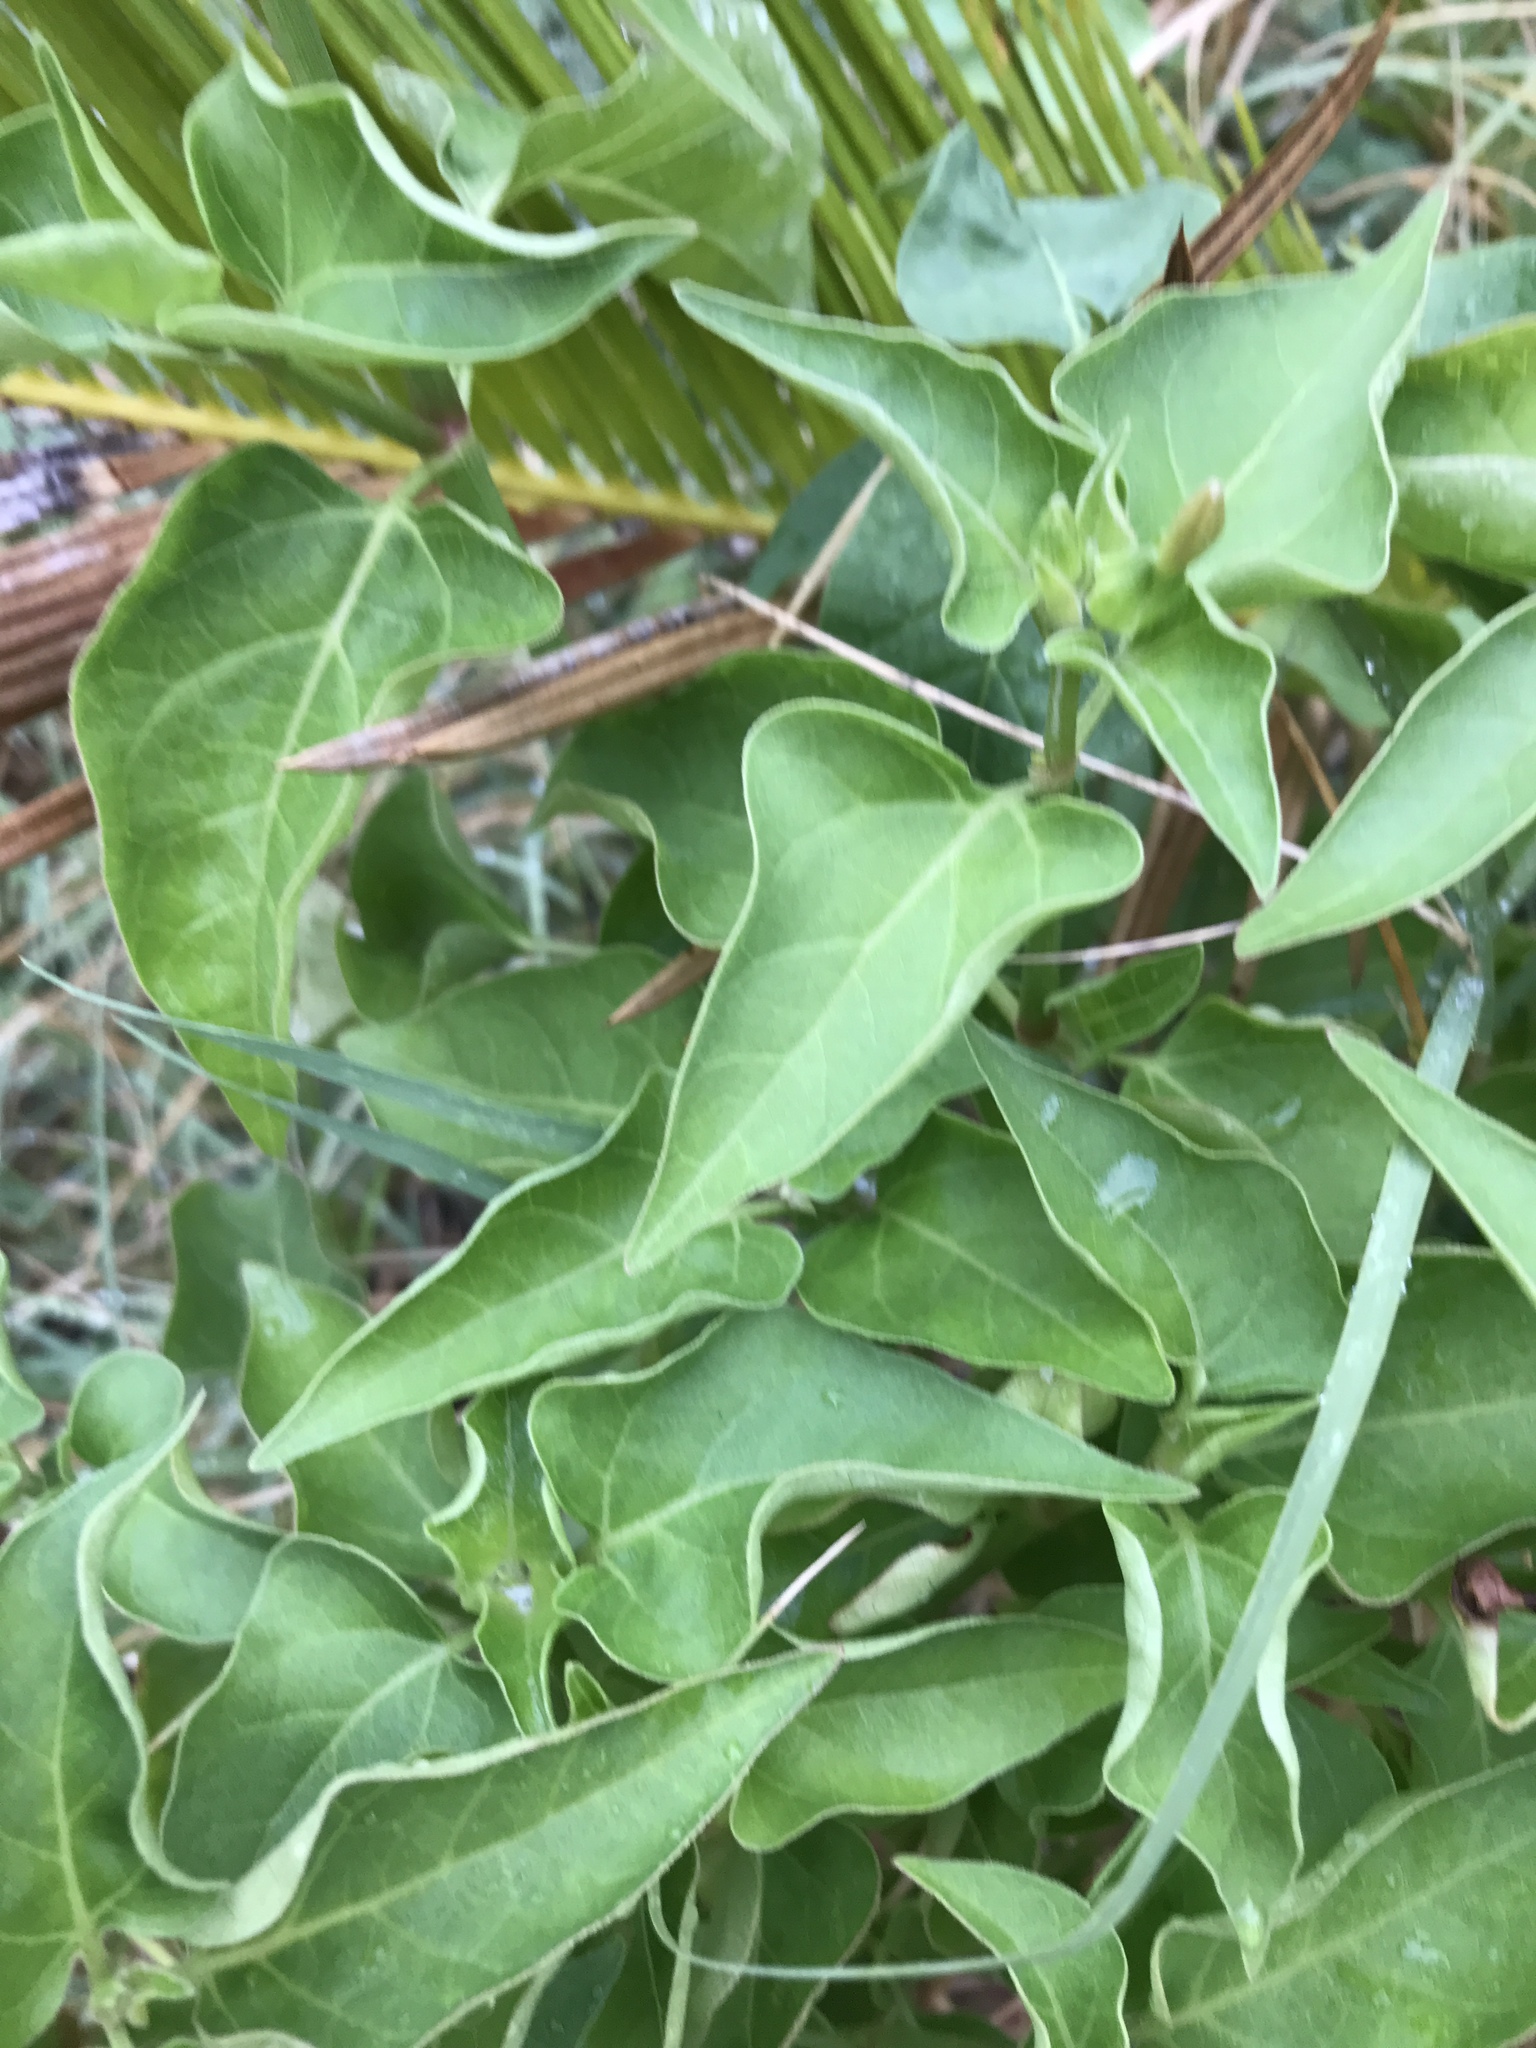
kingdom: Plantae
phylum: Tracheophyta
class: Magnoliopsida
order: Caryophyllales
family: Nyctaginaceae
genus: Mirabilis
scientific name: Mirabilis jalapa
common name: Marvel-of-peru
